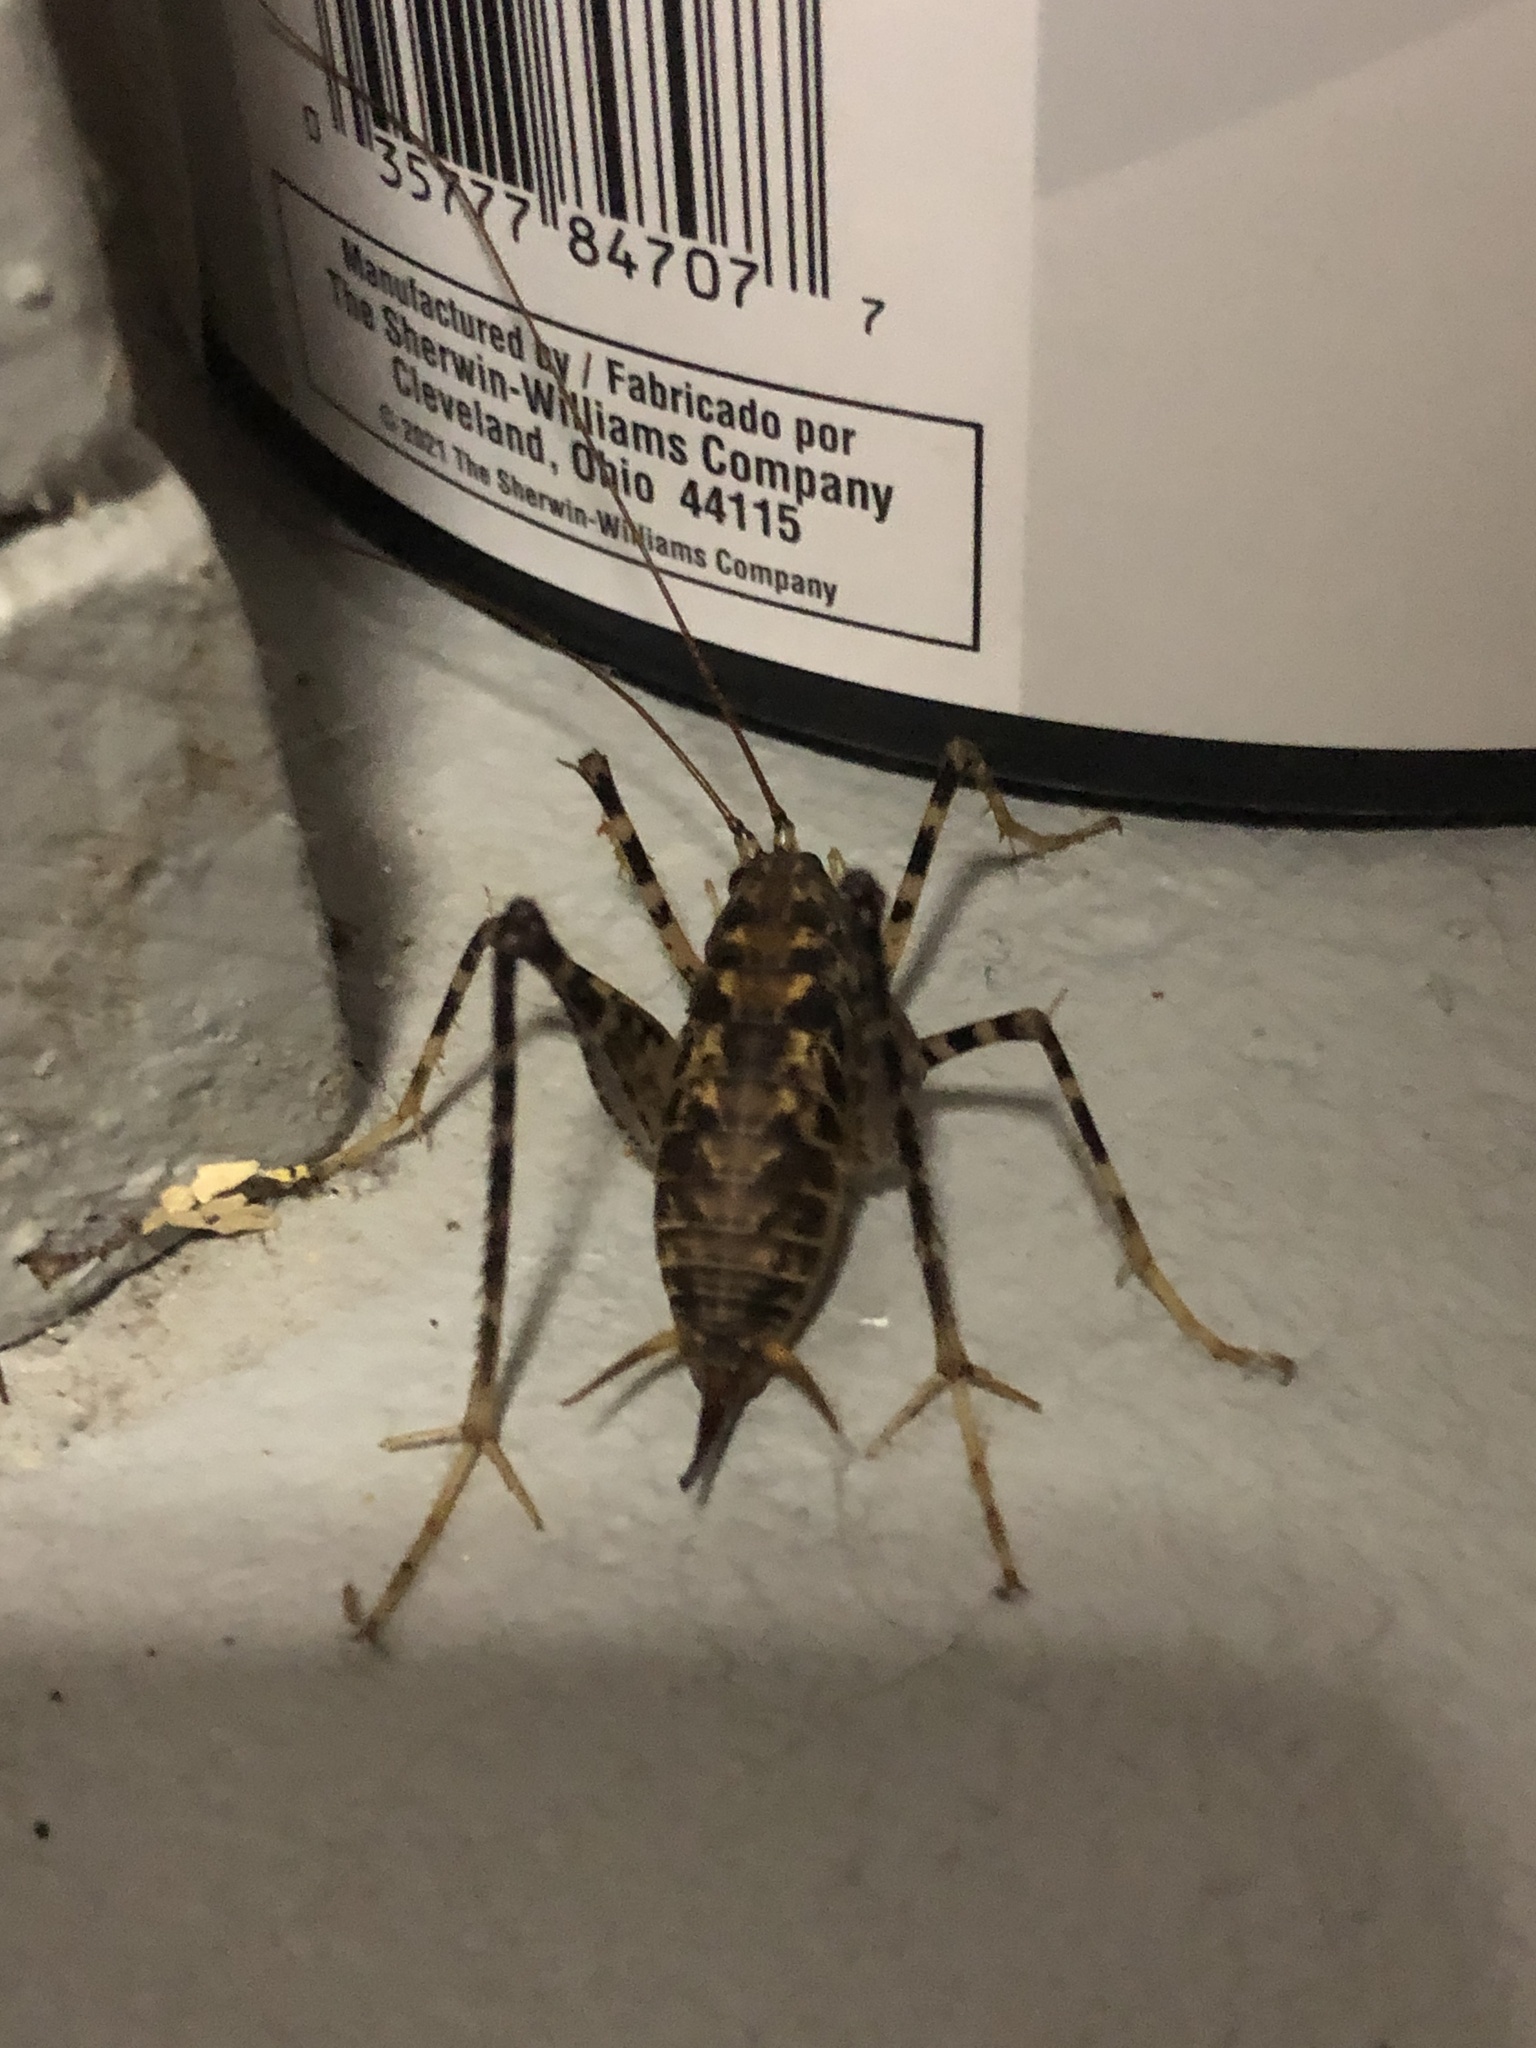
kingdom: Animalia
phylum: Arthropoda
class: Insecta
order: Orthoptera
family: Rhaphidophoridae
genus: Diestrammena
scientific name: Diestrammena japanica
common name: Japanese camel cricket
